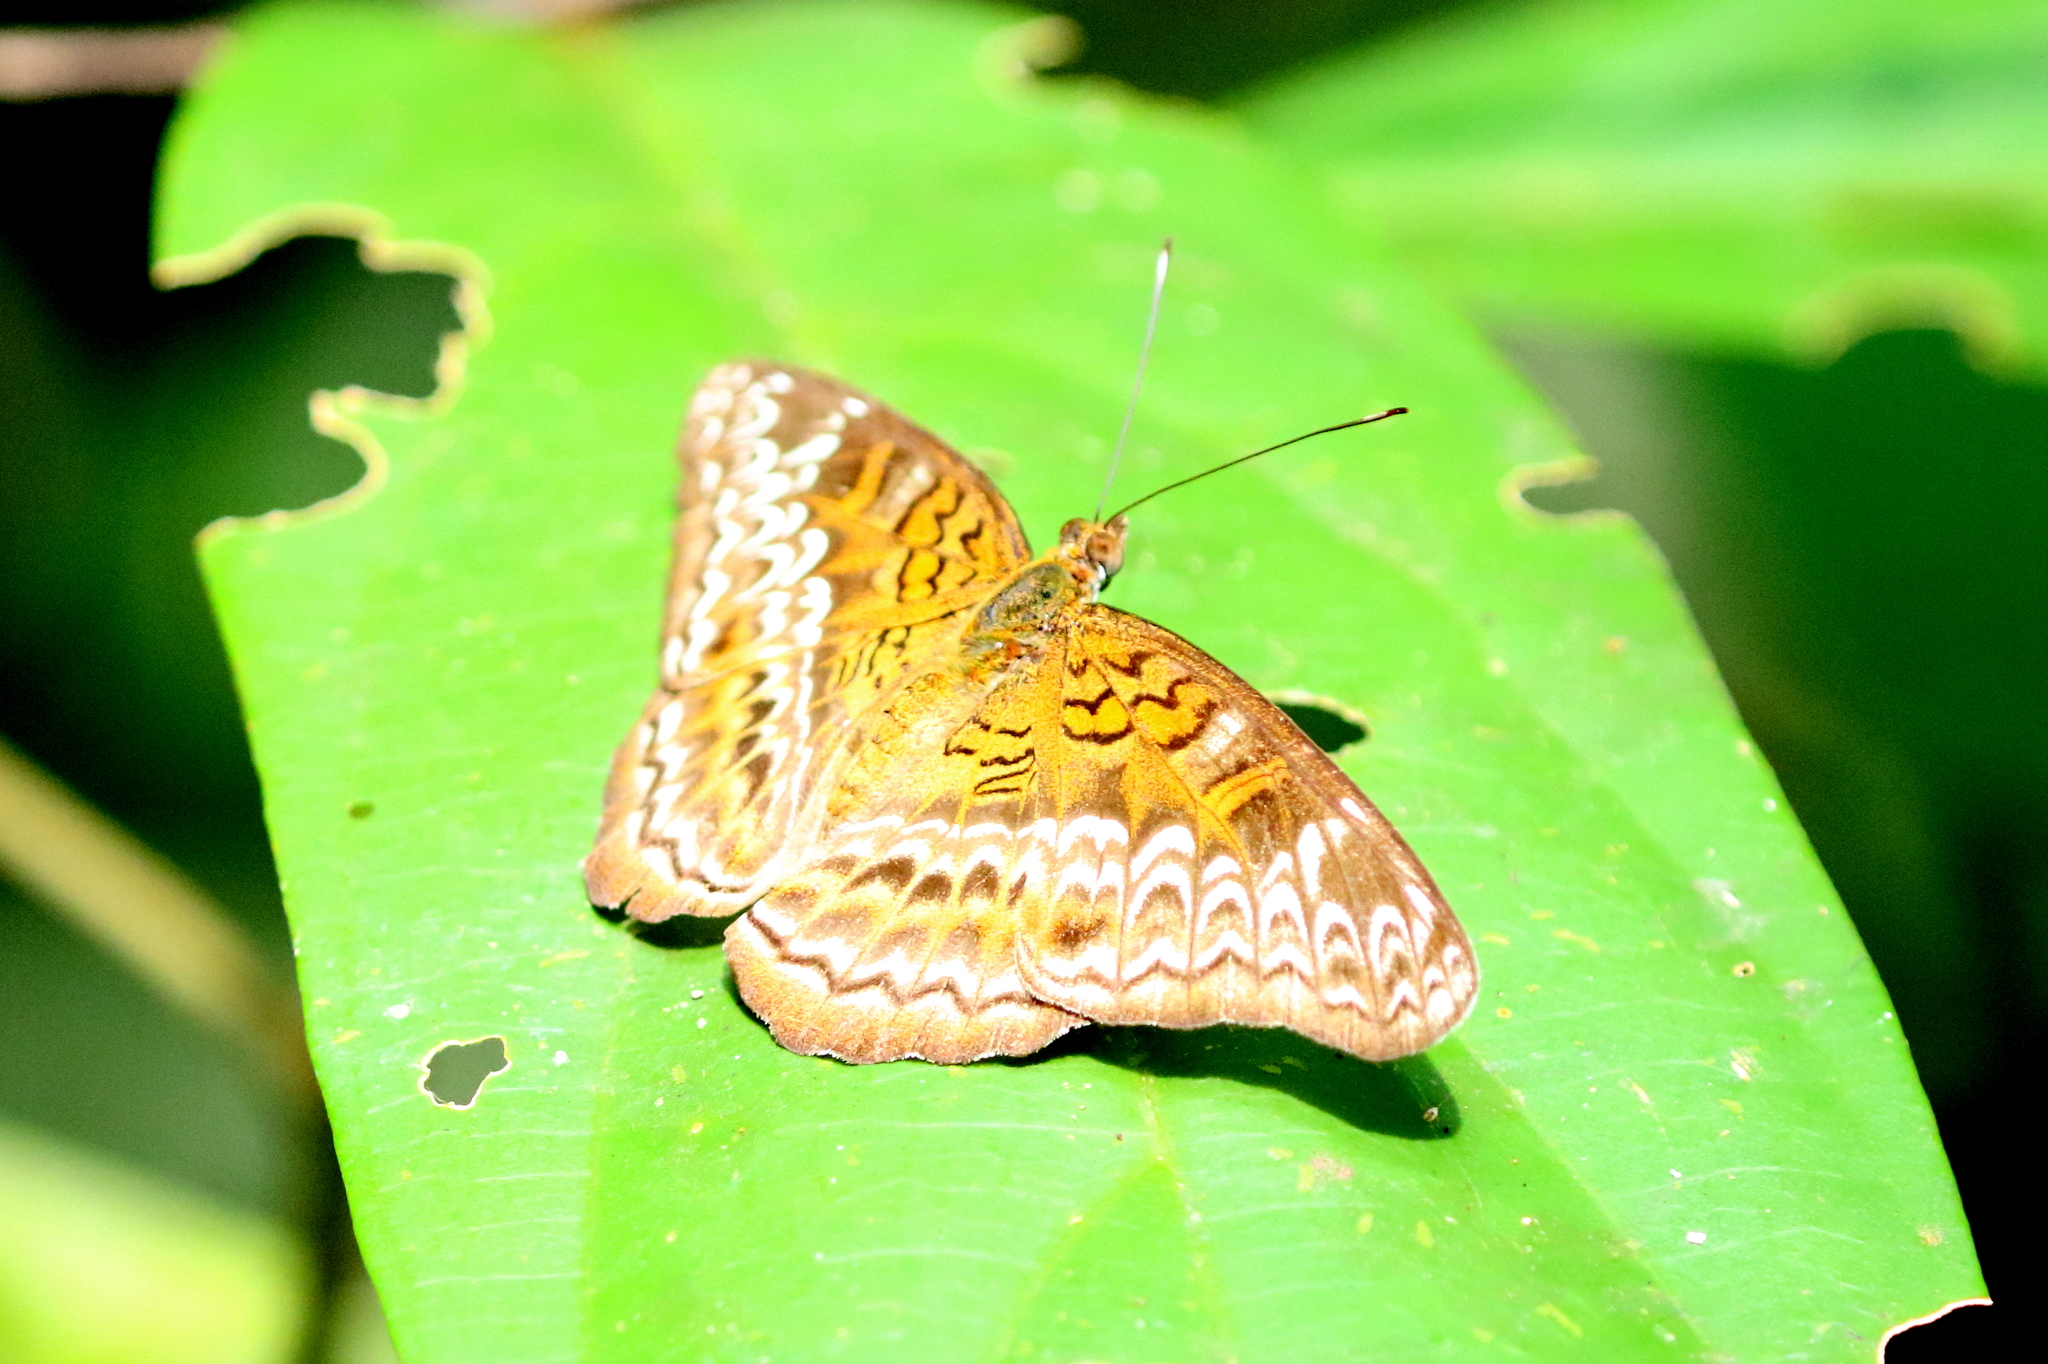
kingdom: Animalia
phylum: Arthropoda
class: Insecta
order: Lepidoptera
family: Nymphalidae
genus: Lebadea
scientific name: Lebadea martha
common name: Knight
